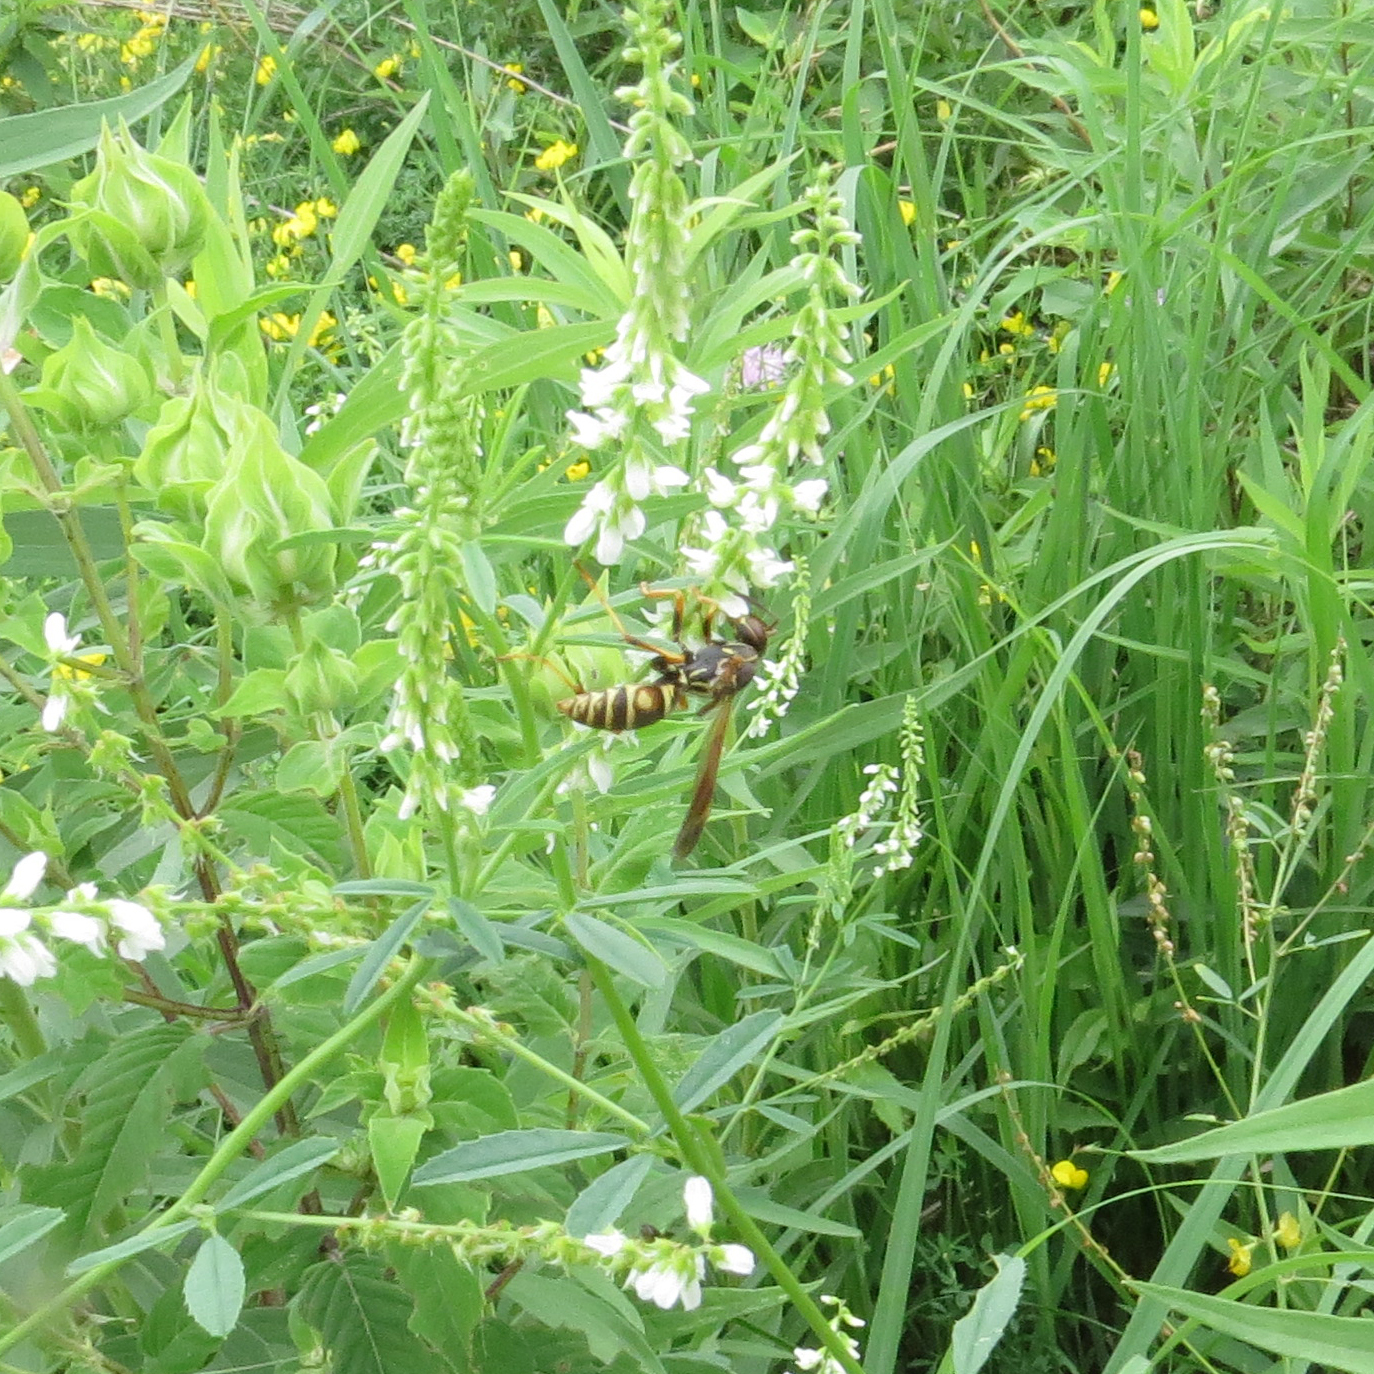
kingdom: Animalia
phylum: Arthropoda
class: Insecta
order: Hymenoptera
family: Eumenidae
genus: Polistes
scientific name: Polistes fuscatus
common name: Dark paper wasp
